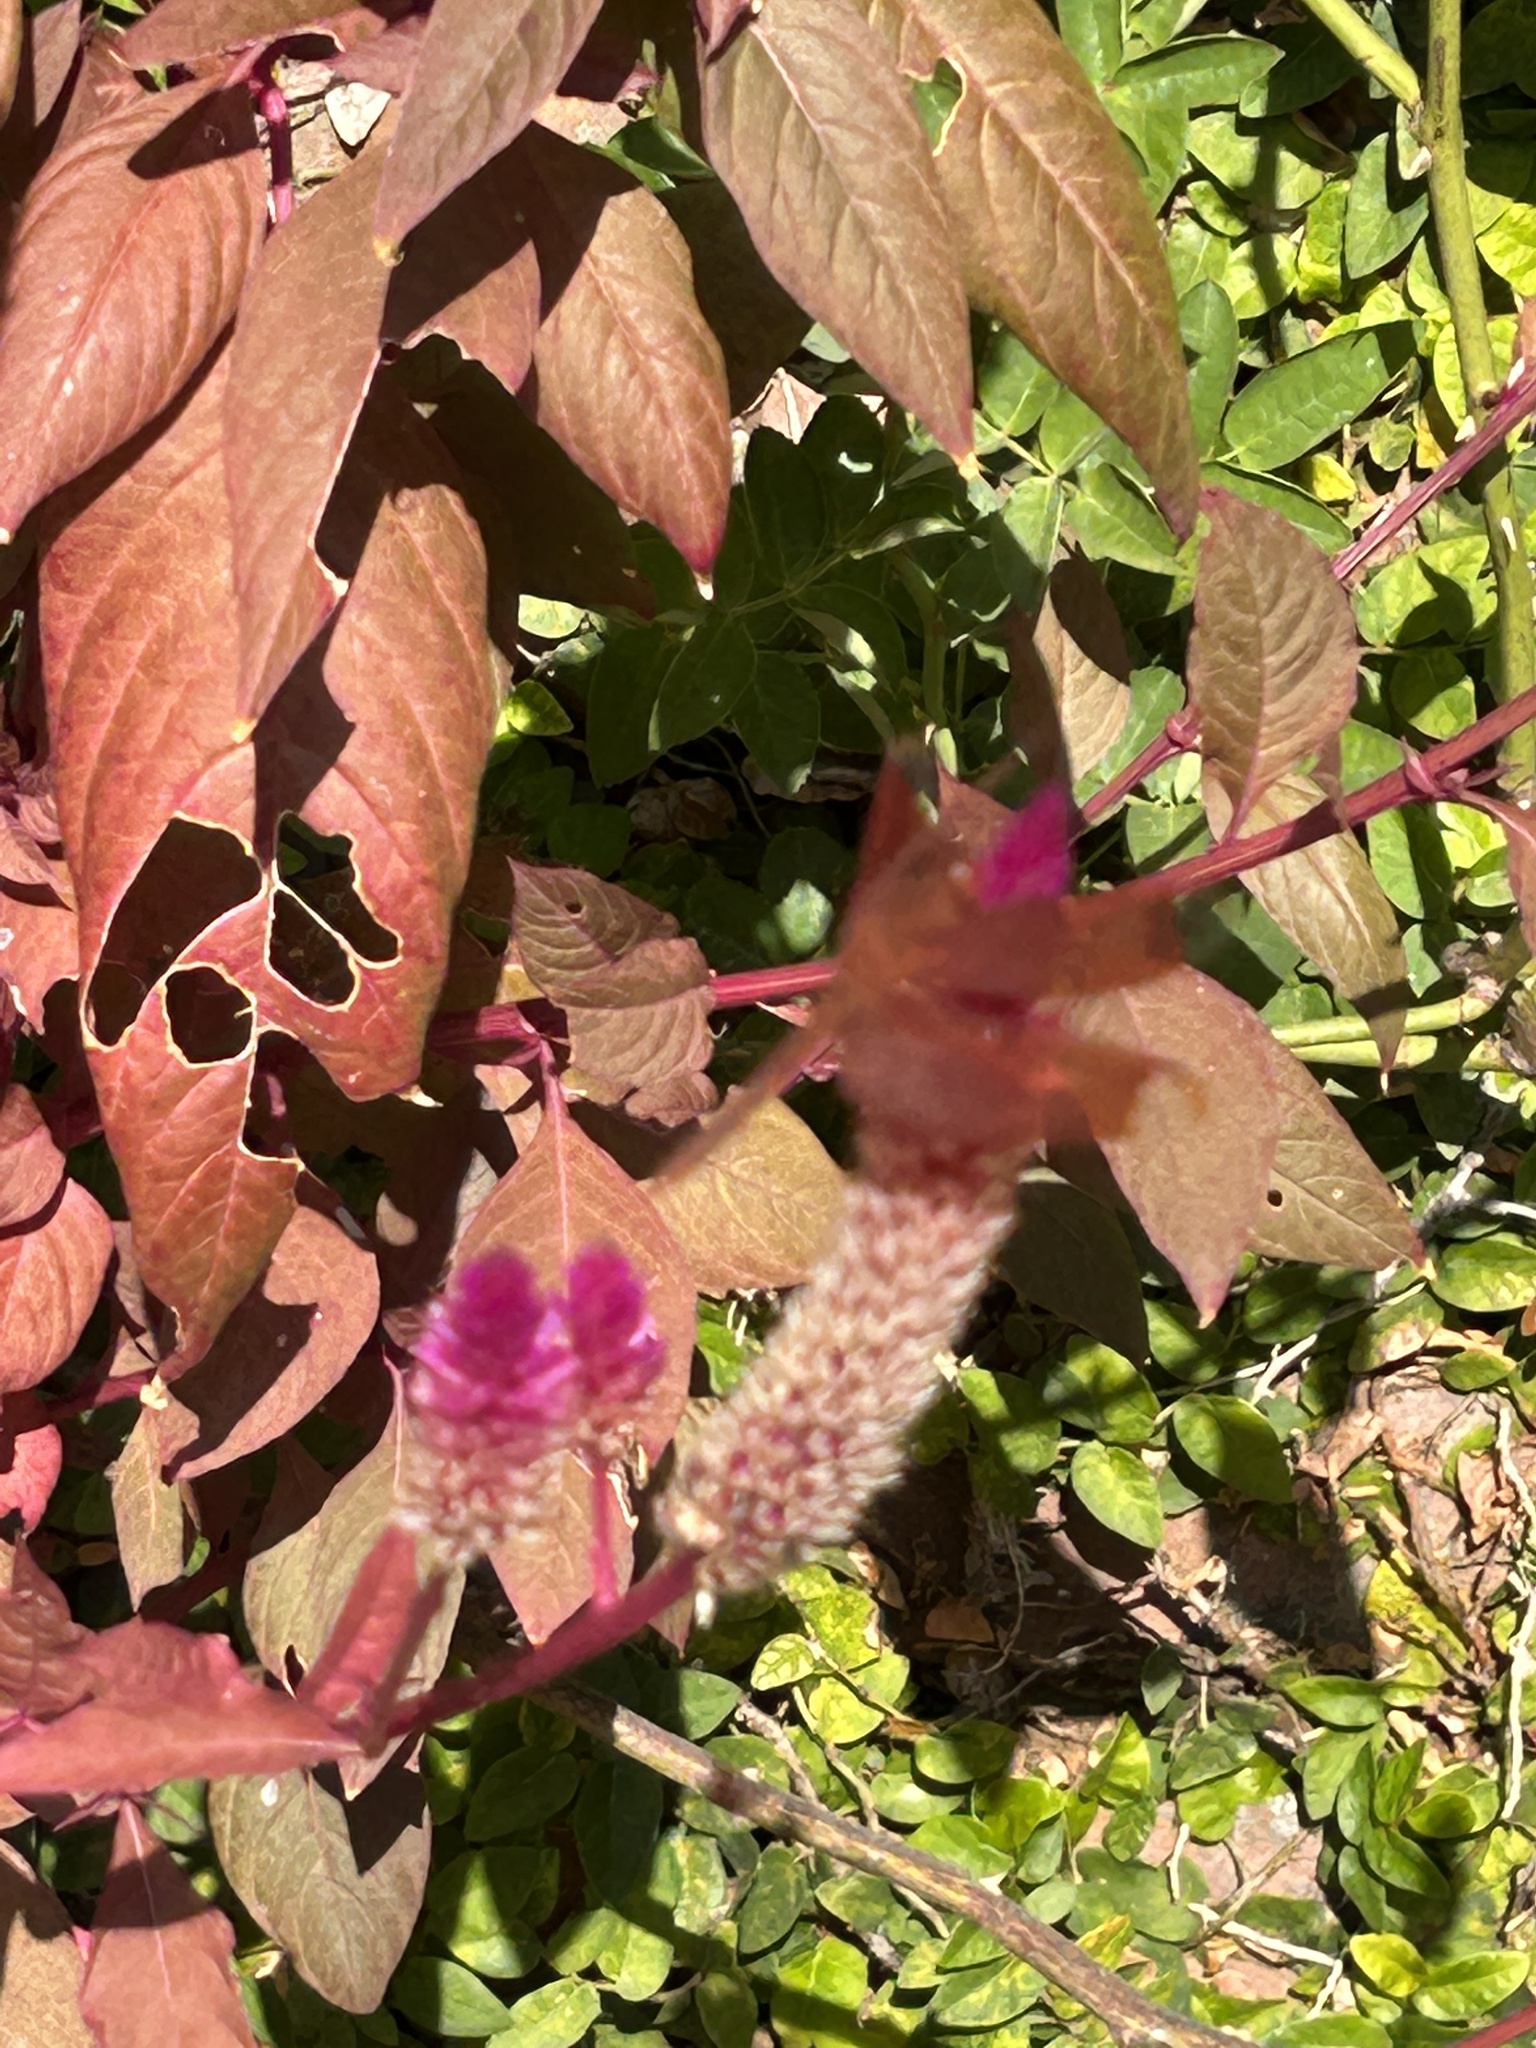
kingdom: Animalia
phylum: Arthropoda
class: Insecta
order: Odonata
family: Libellulidae
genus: Neurothemis
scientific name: Neurothemis fulvia
